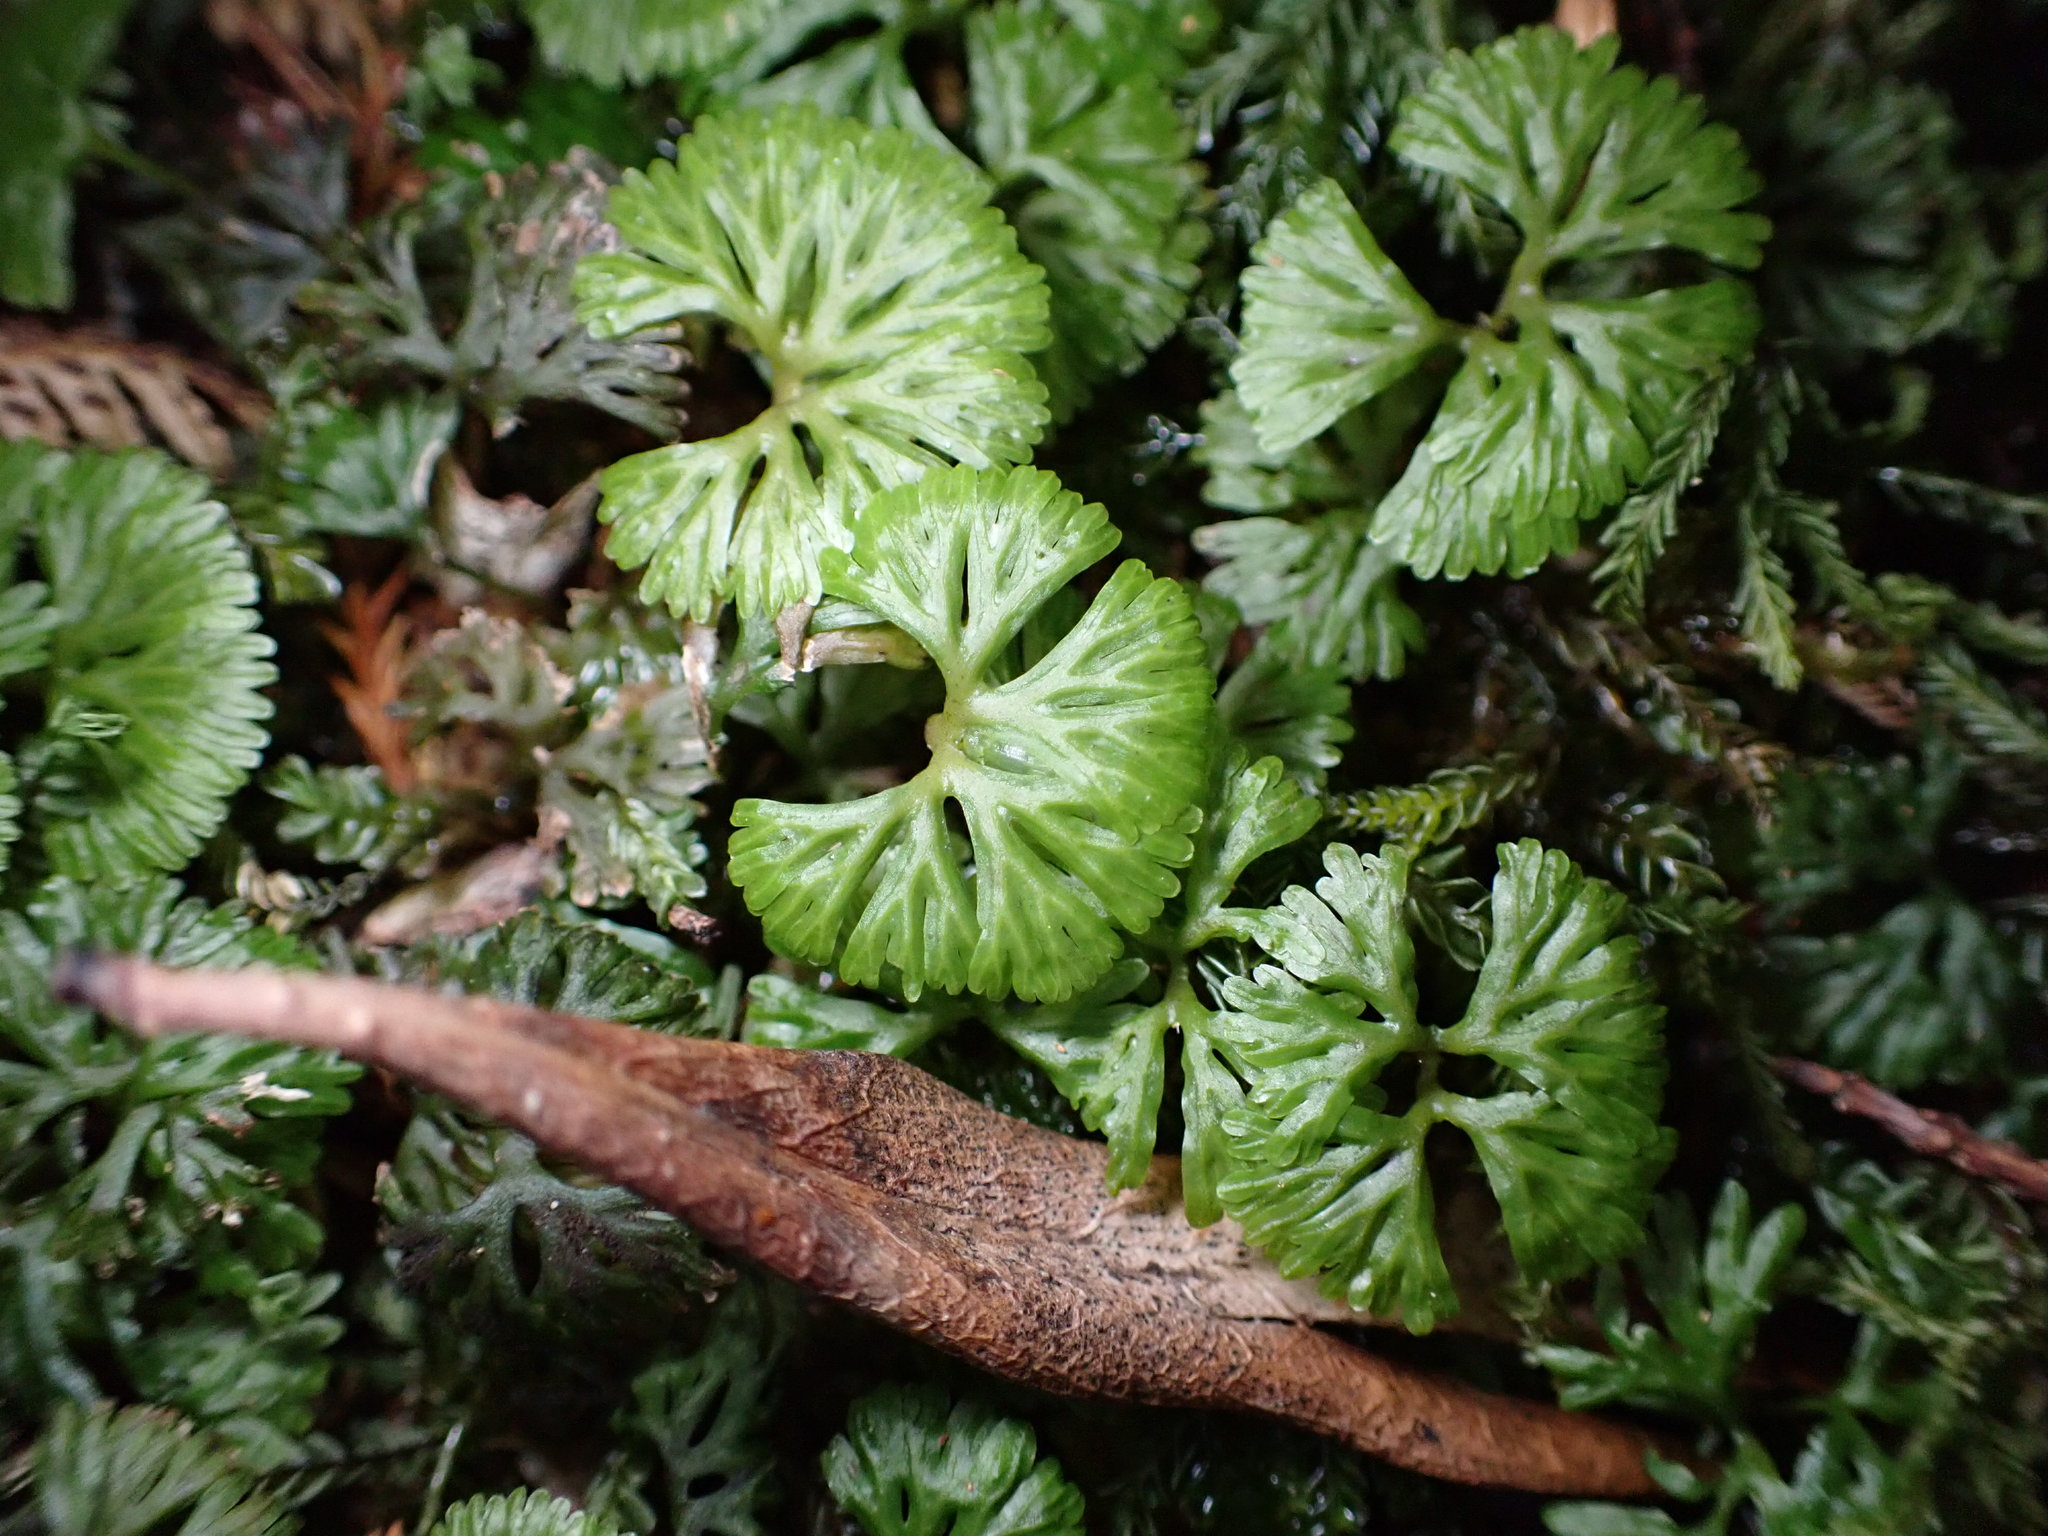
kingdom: Plantae
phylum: Marchantiophyta
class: Jungermanniopsida
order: Pallaviciniales
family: Hymenophytaceae
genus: Hymenophyton
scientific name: Hymenophyton flabellatum
